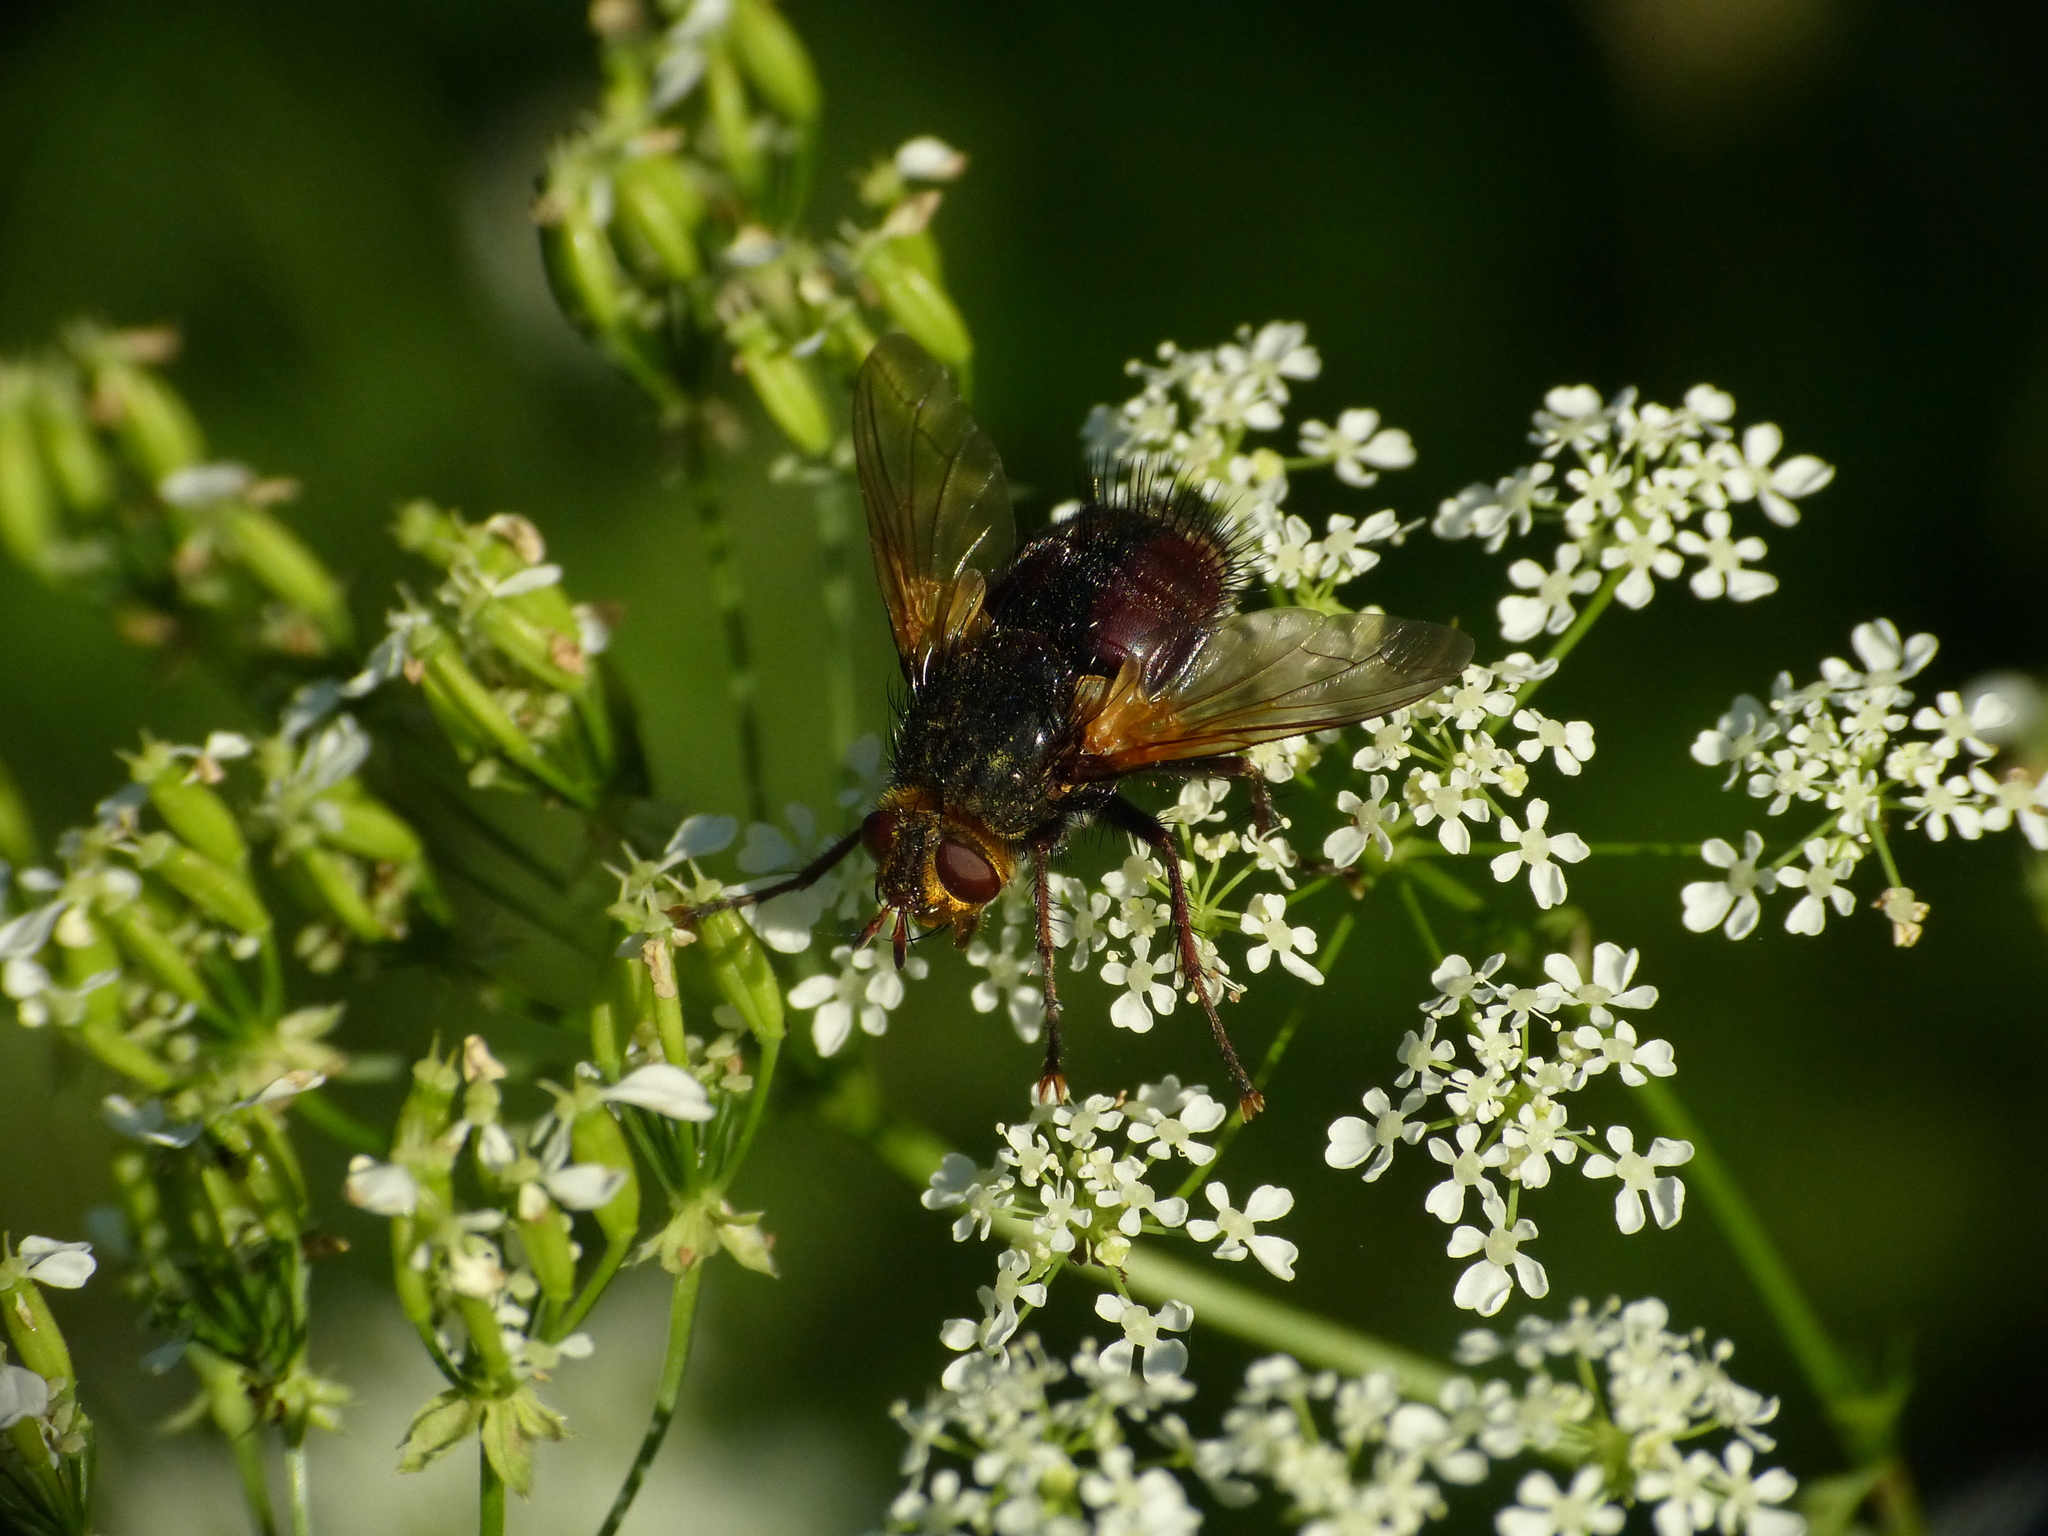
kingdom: Animalia
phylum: Arthropoda
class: Insecta
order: Diptera
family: Tachinidae
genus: Tachina
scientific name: Tachina magna
